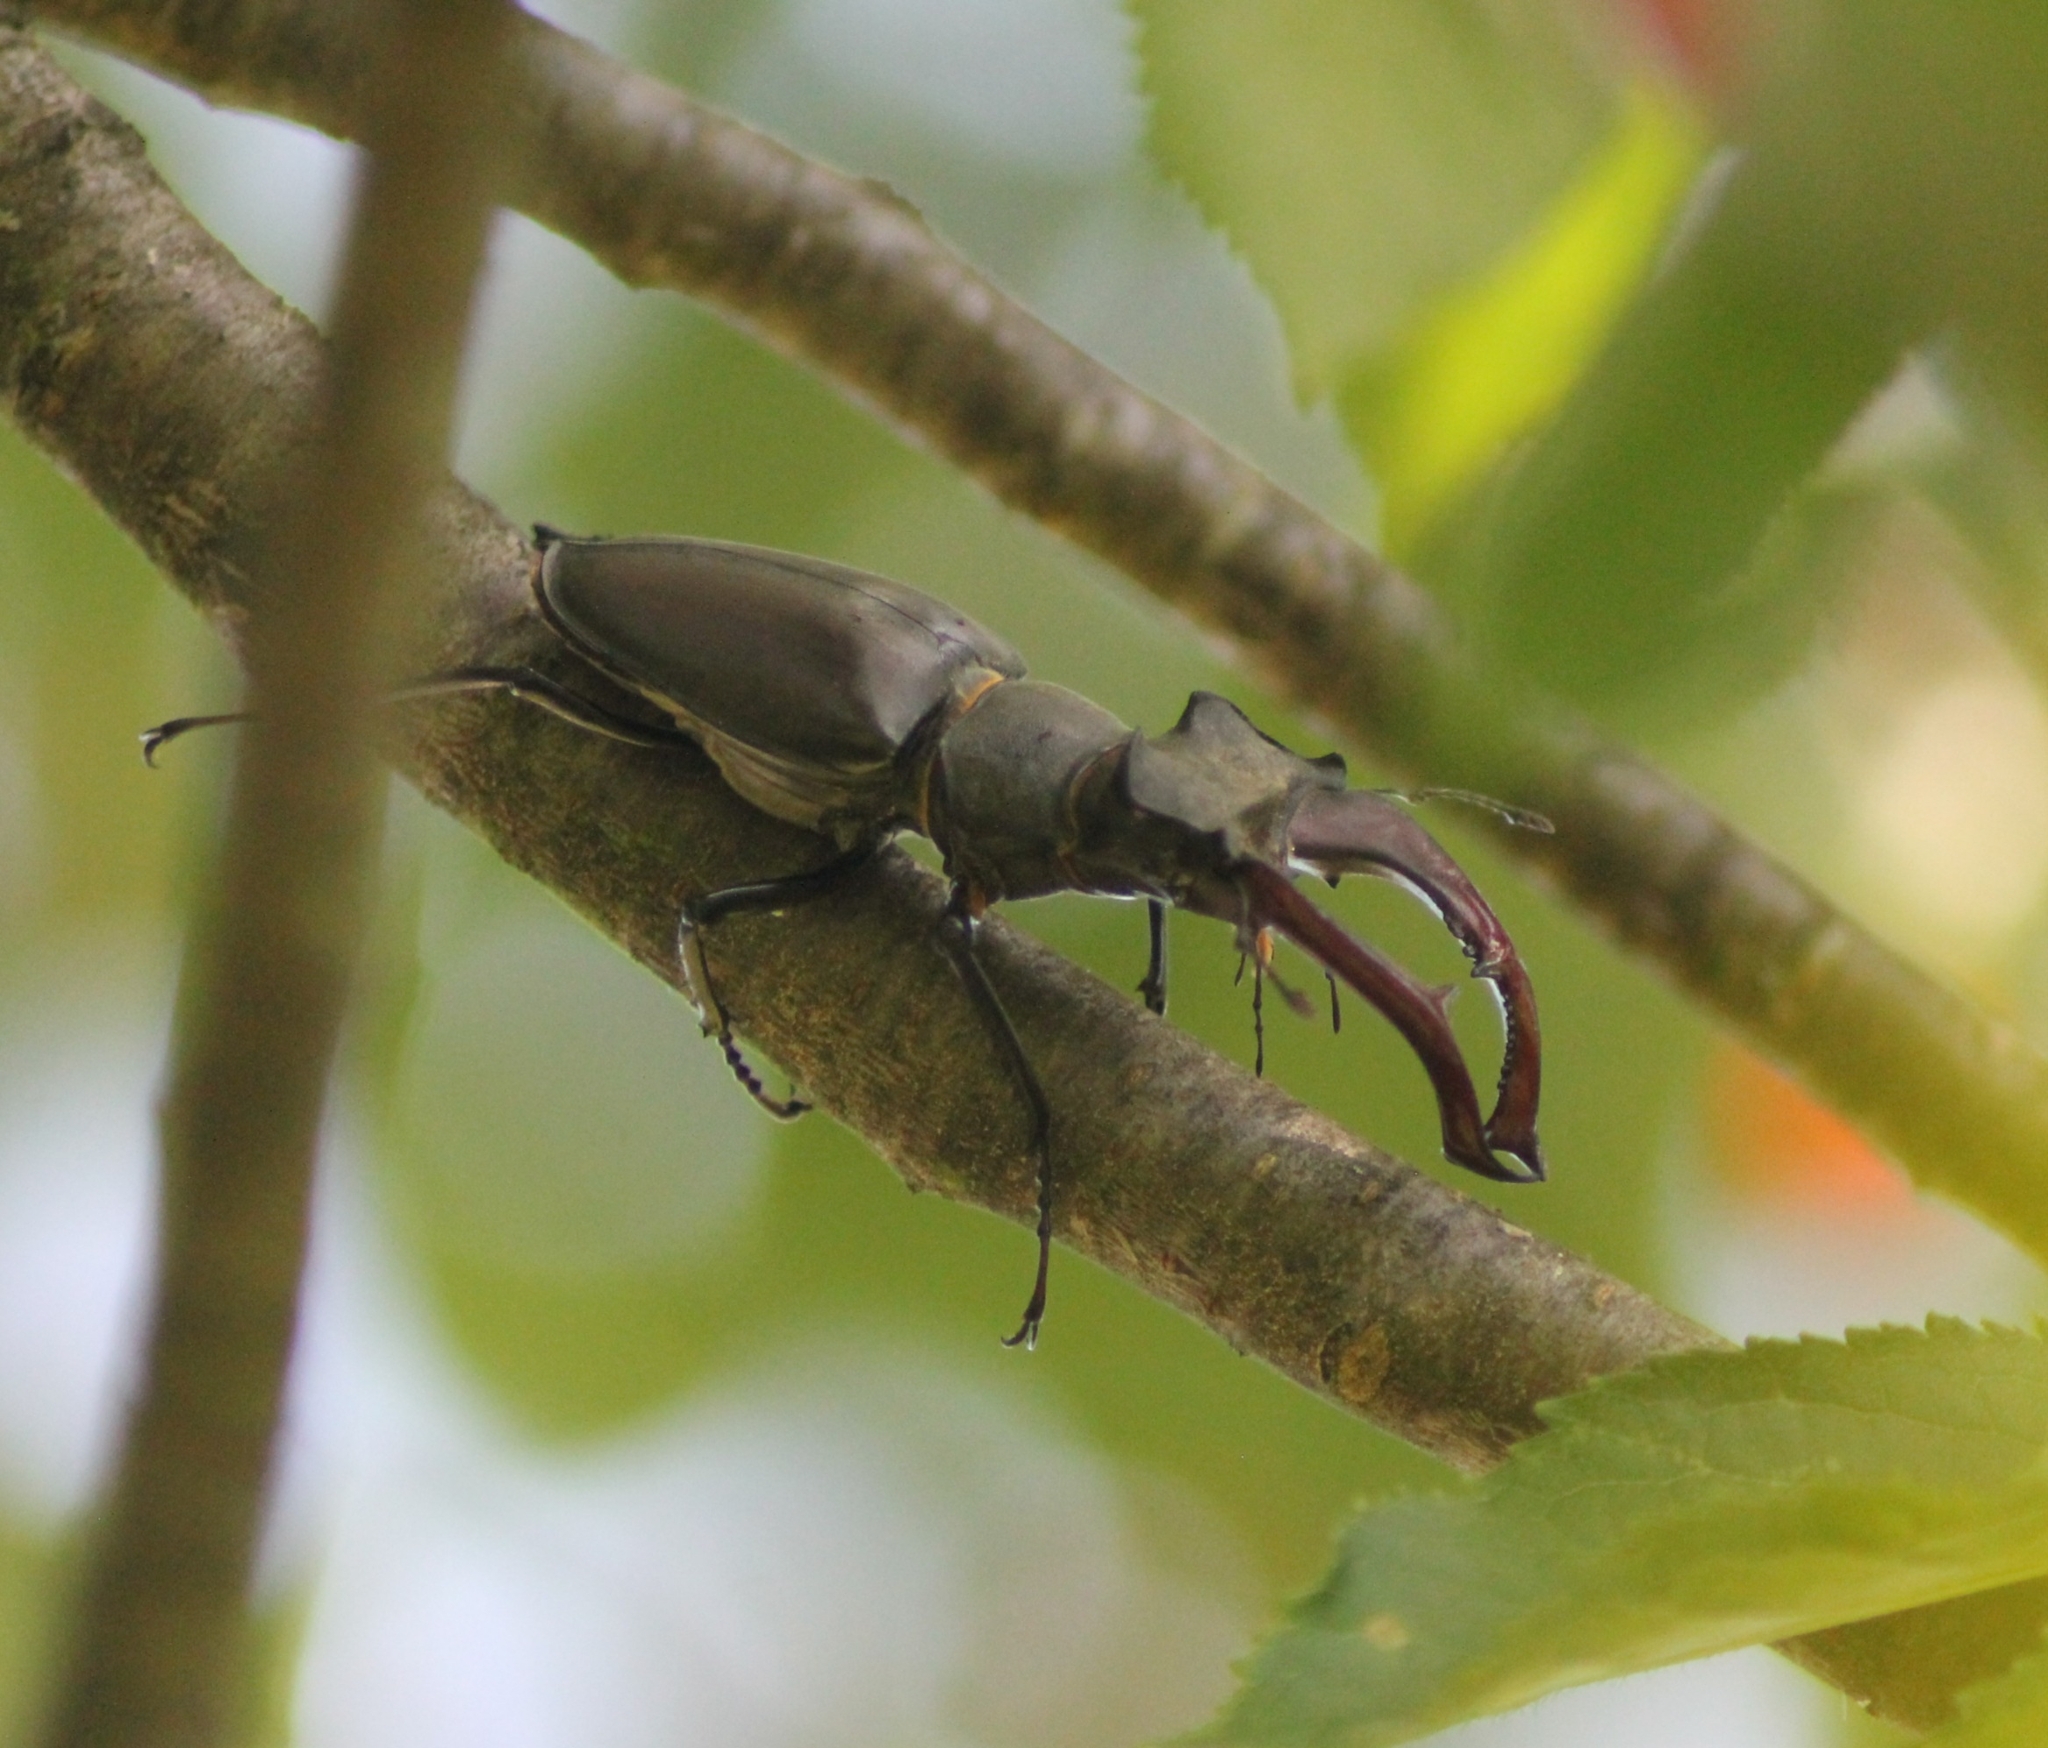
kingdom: Animalia
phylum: Arthropoda
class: Insecta
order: Coleoptera
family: Lucanidae
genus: Lucanus
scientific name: Lucanus cervus
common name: Stag beetle
